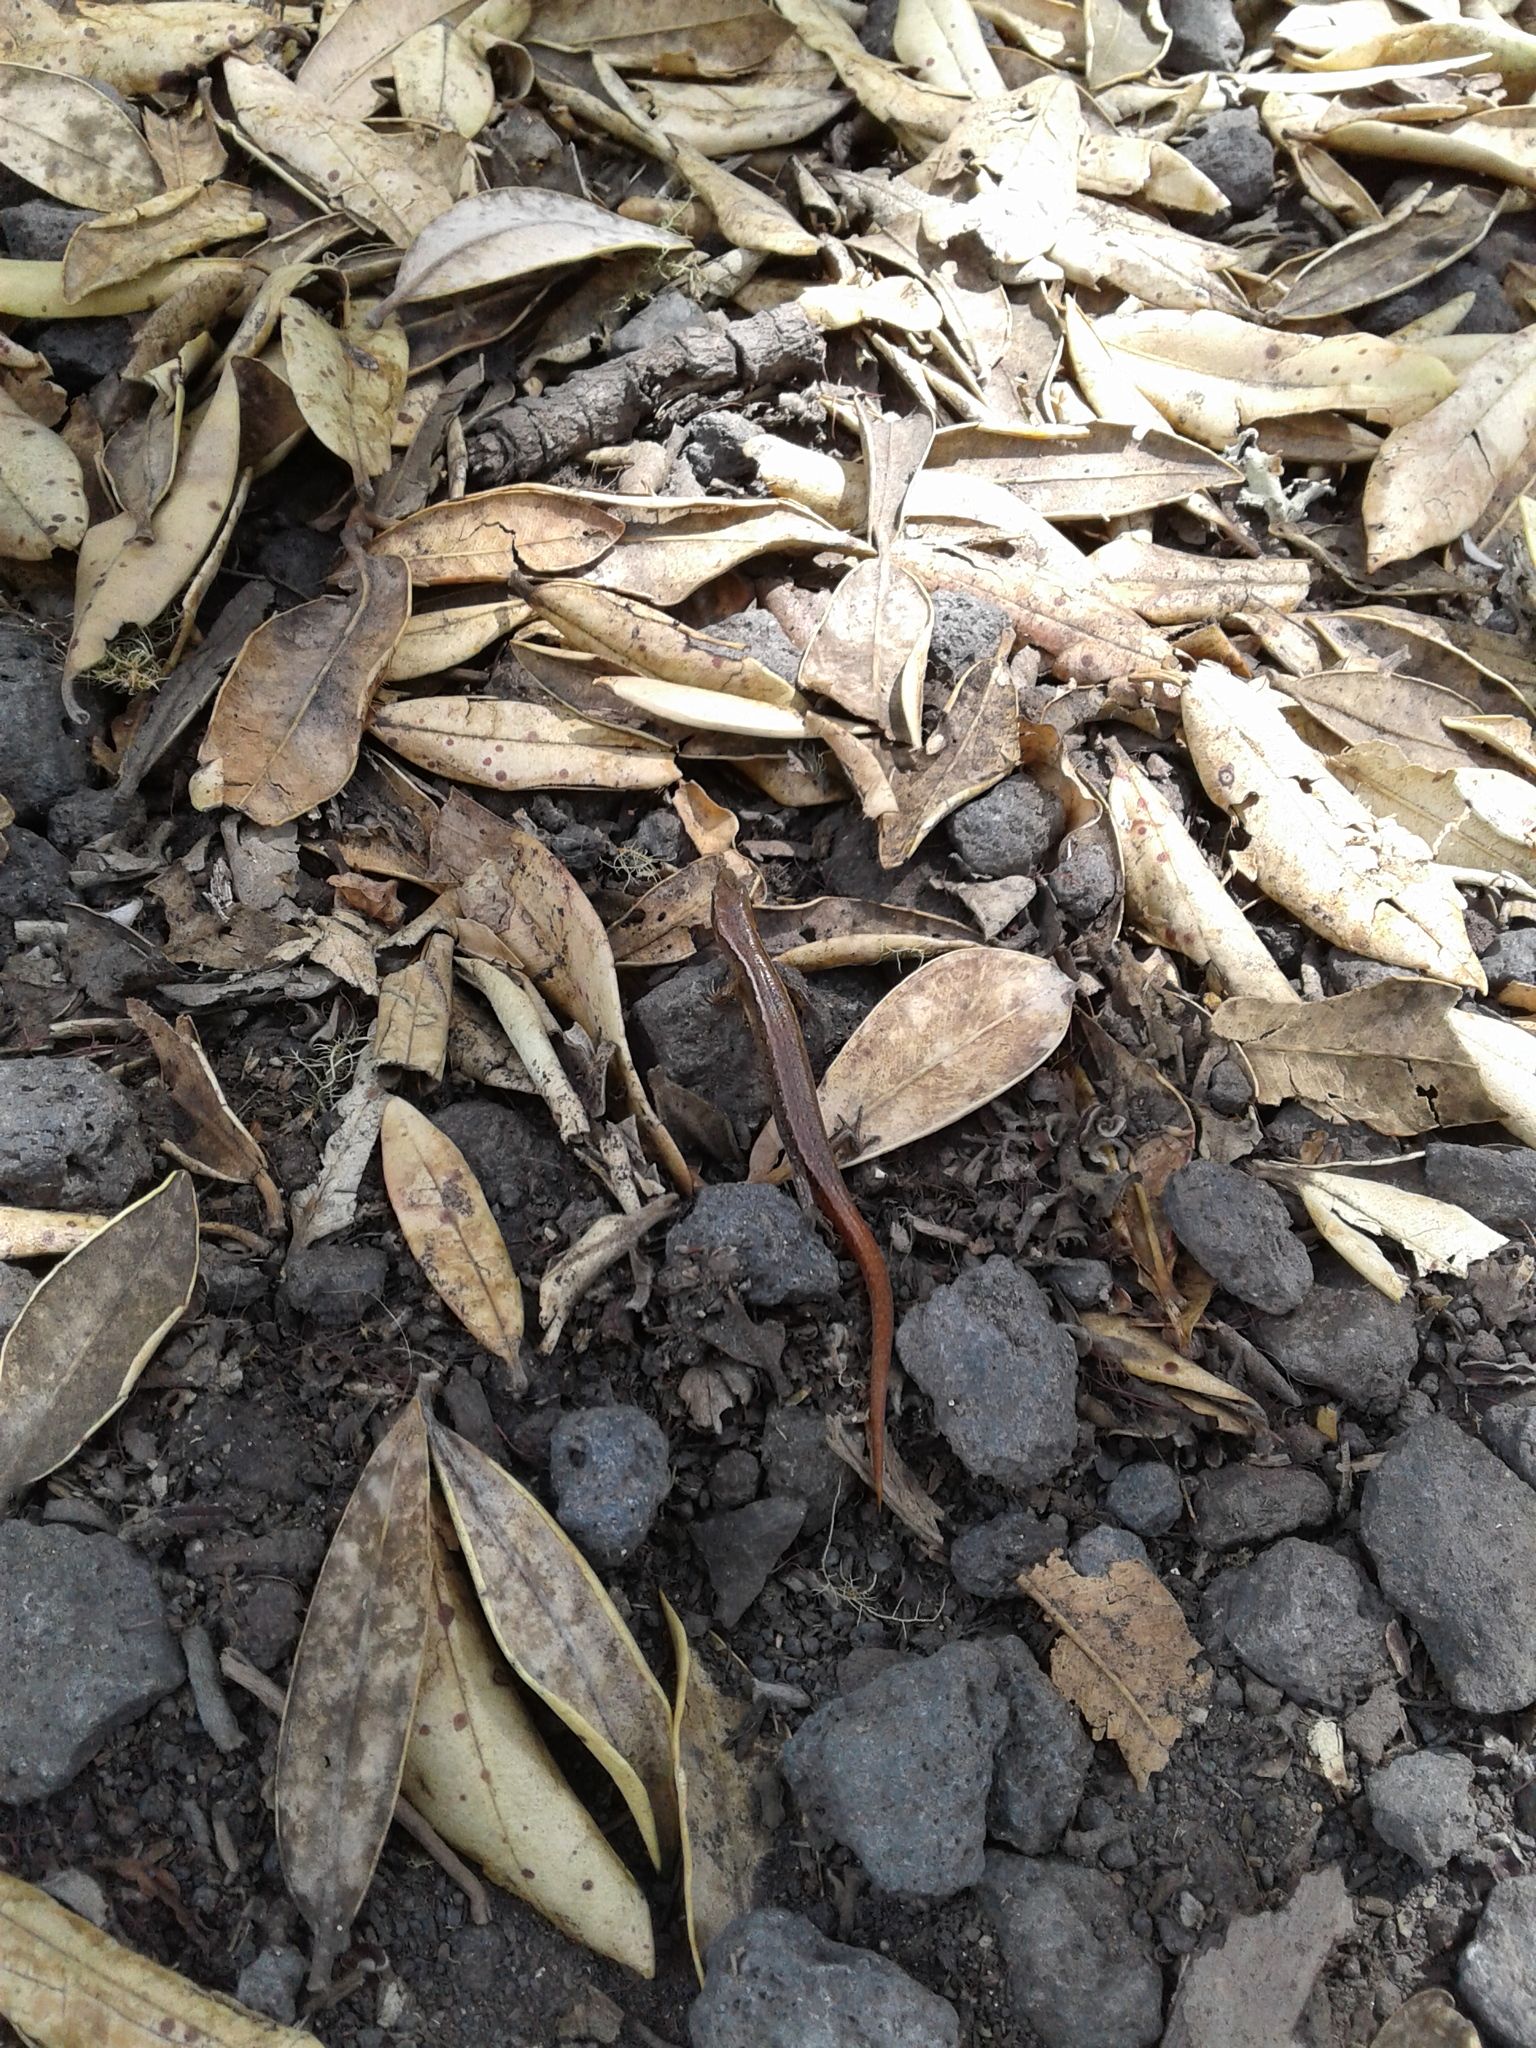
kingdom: Animalia
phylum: Chordata
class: Squamata
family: Scincidae
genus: Oligosoma
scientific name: Oligosoma aeneum
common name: Copper skink
